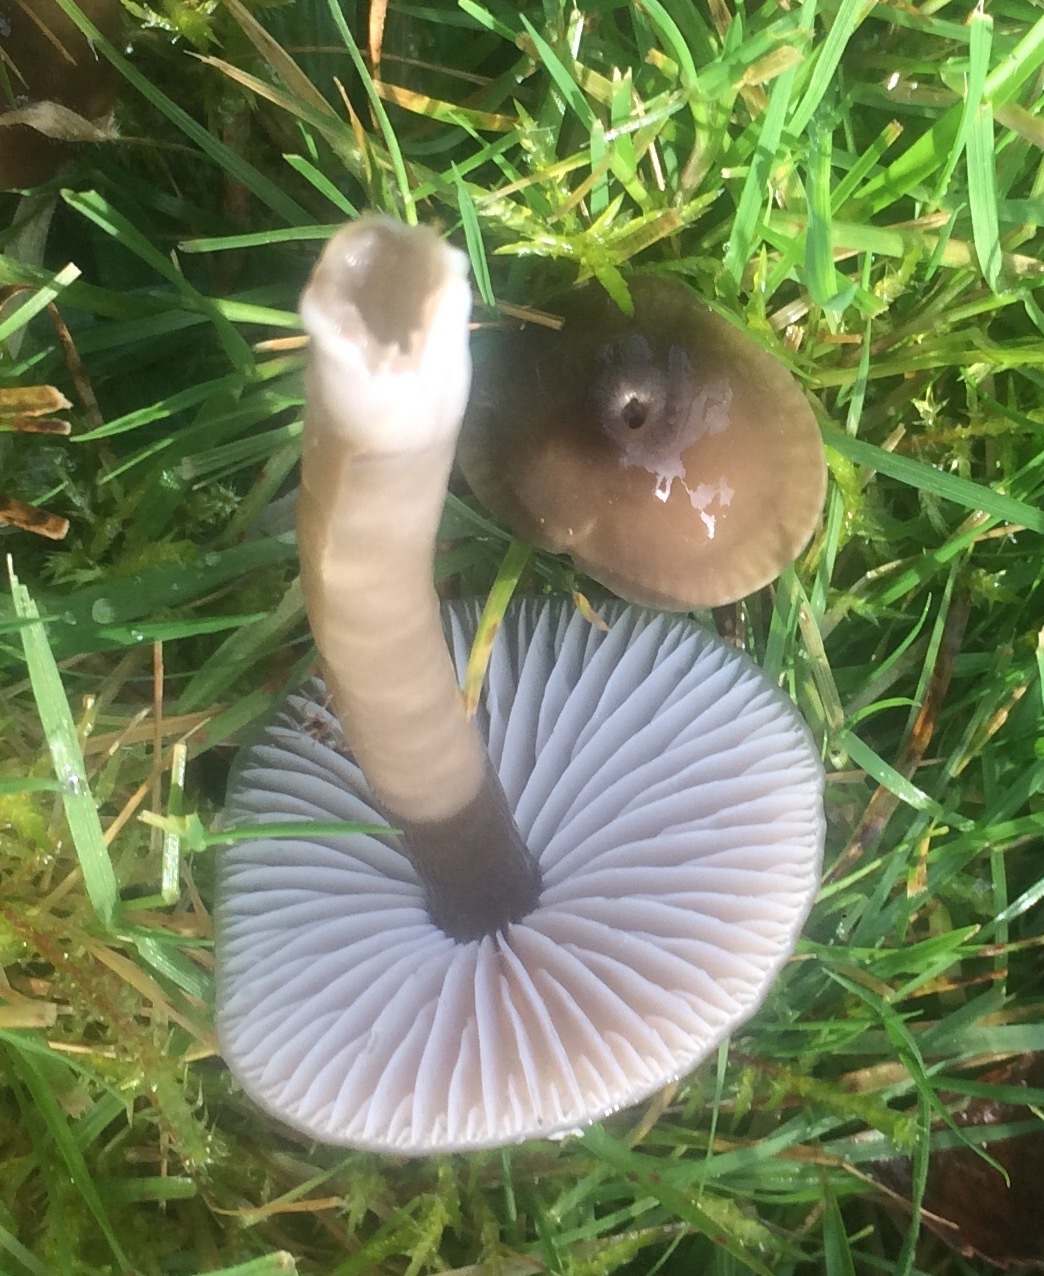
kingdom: Fungi
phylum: Basidiomycota
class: Agaricomycetes
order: Agaricales
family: Hygrophoraceae
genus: Gliophorus
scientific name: Gliophorus irrigatus
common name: Slimy waxcap
